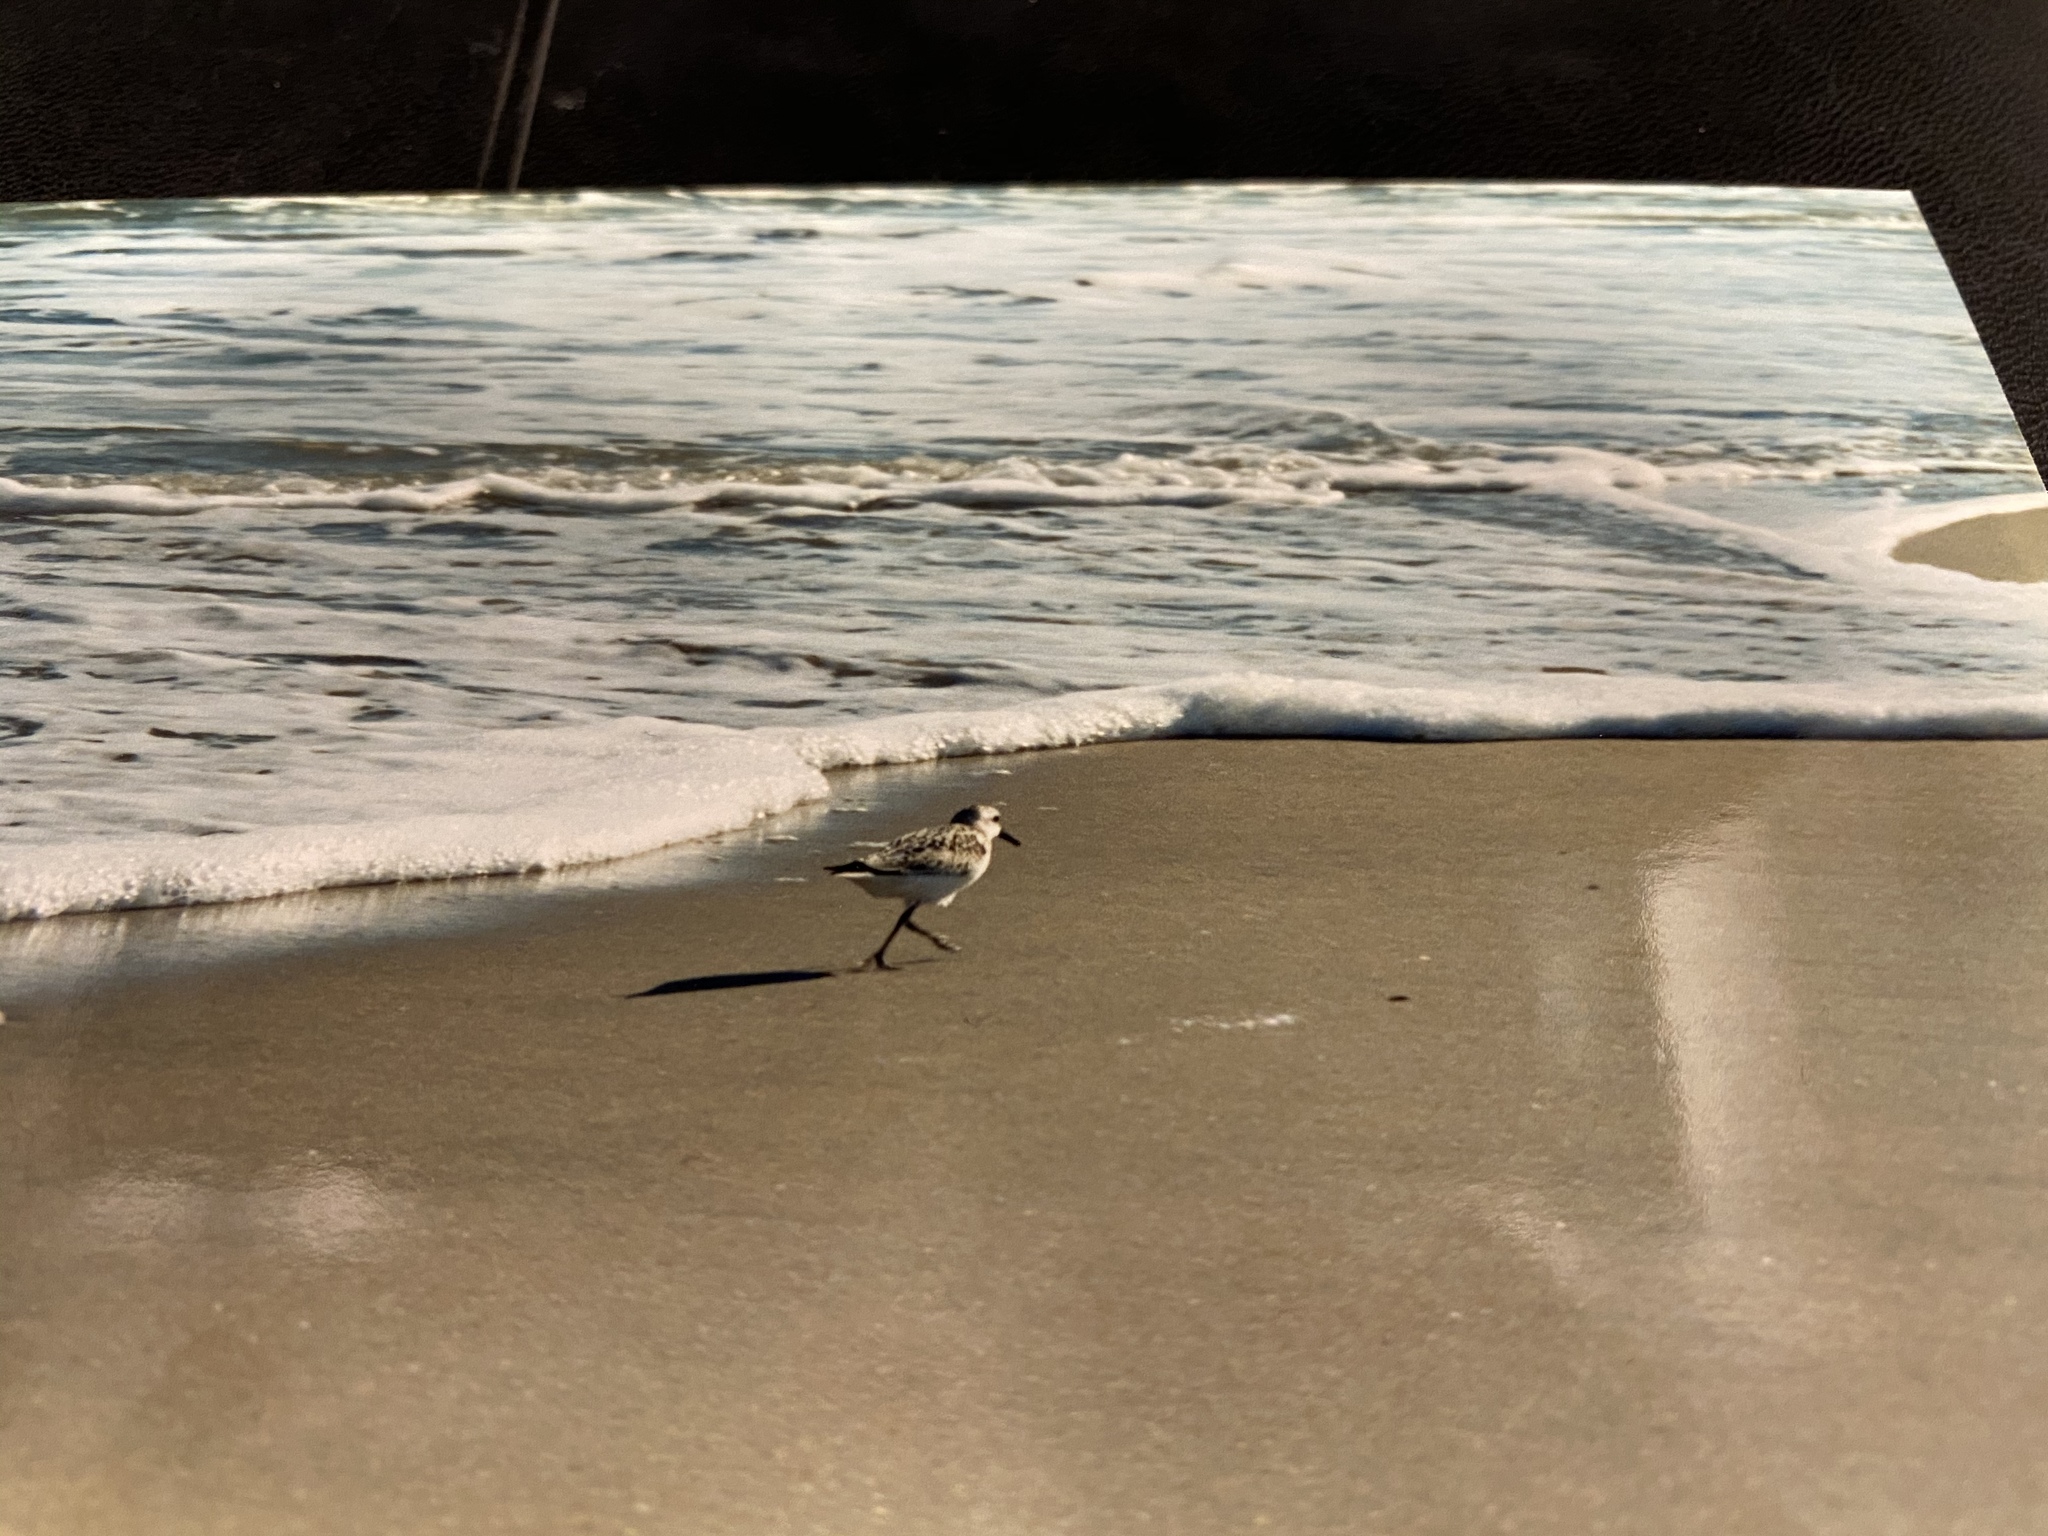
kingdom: Animalia
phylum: Chordata
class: Aves
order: Charadriiformes
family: Scolopacidae
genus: Calidris
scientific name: Calidris alba
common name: Sanderling
